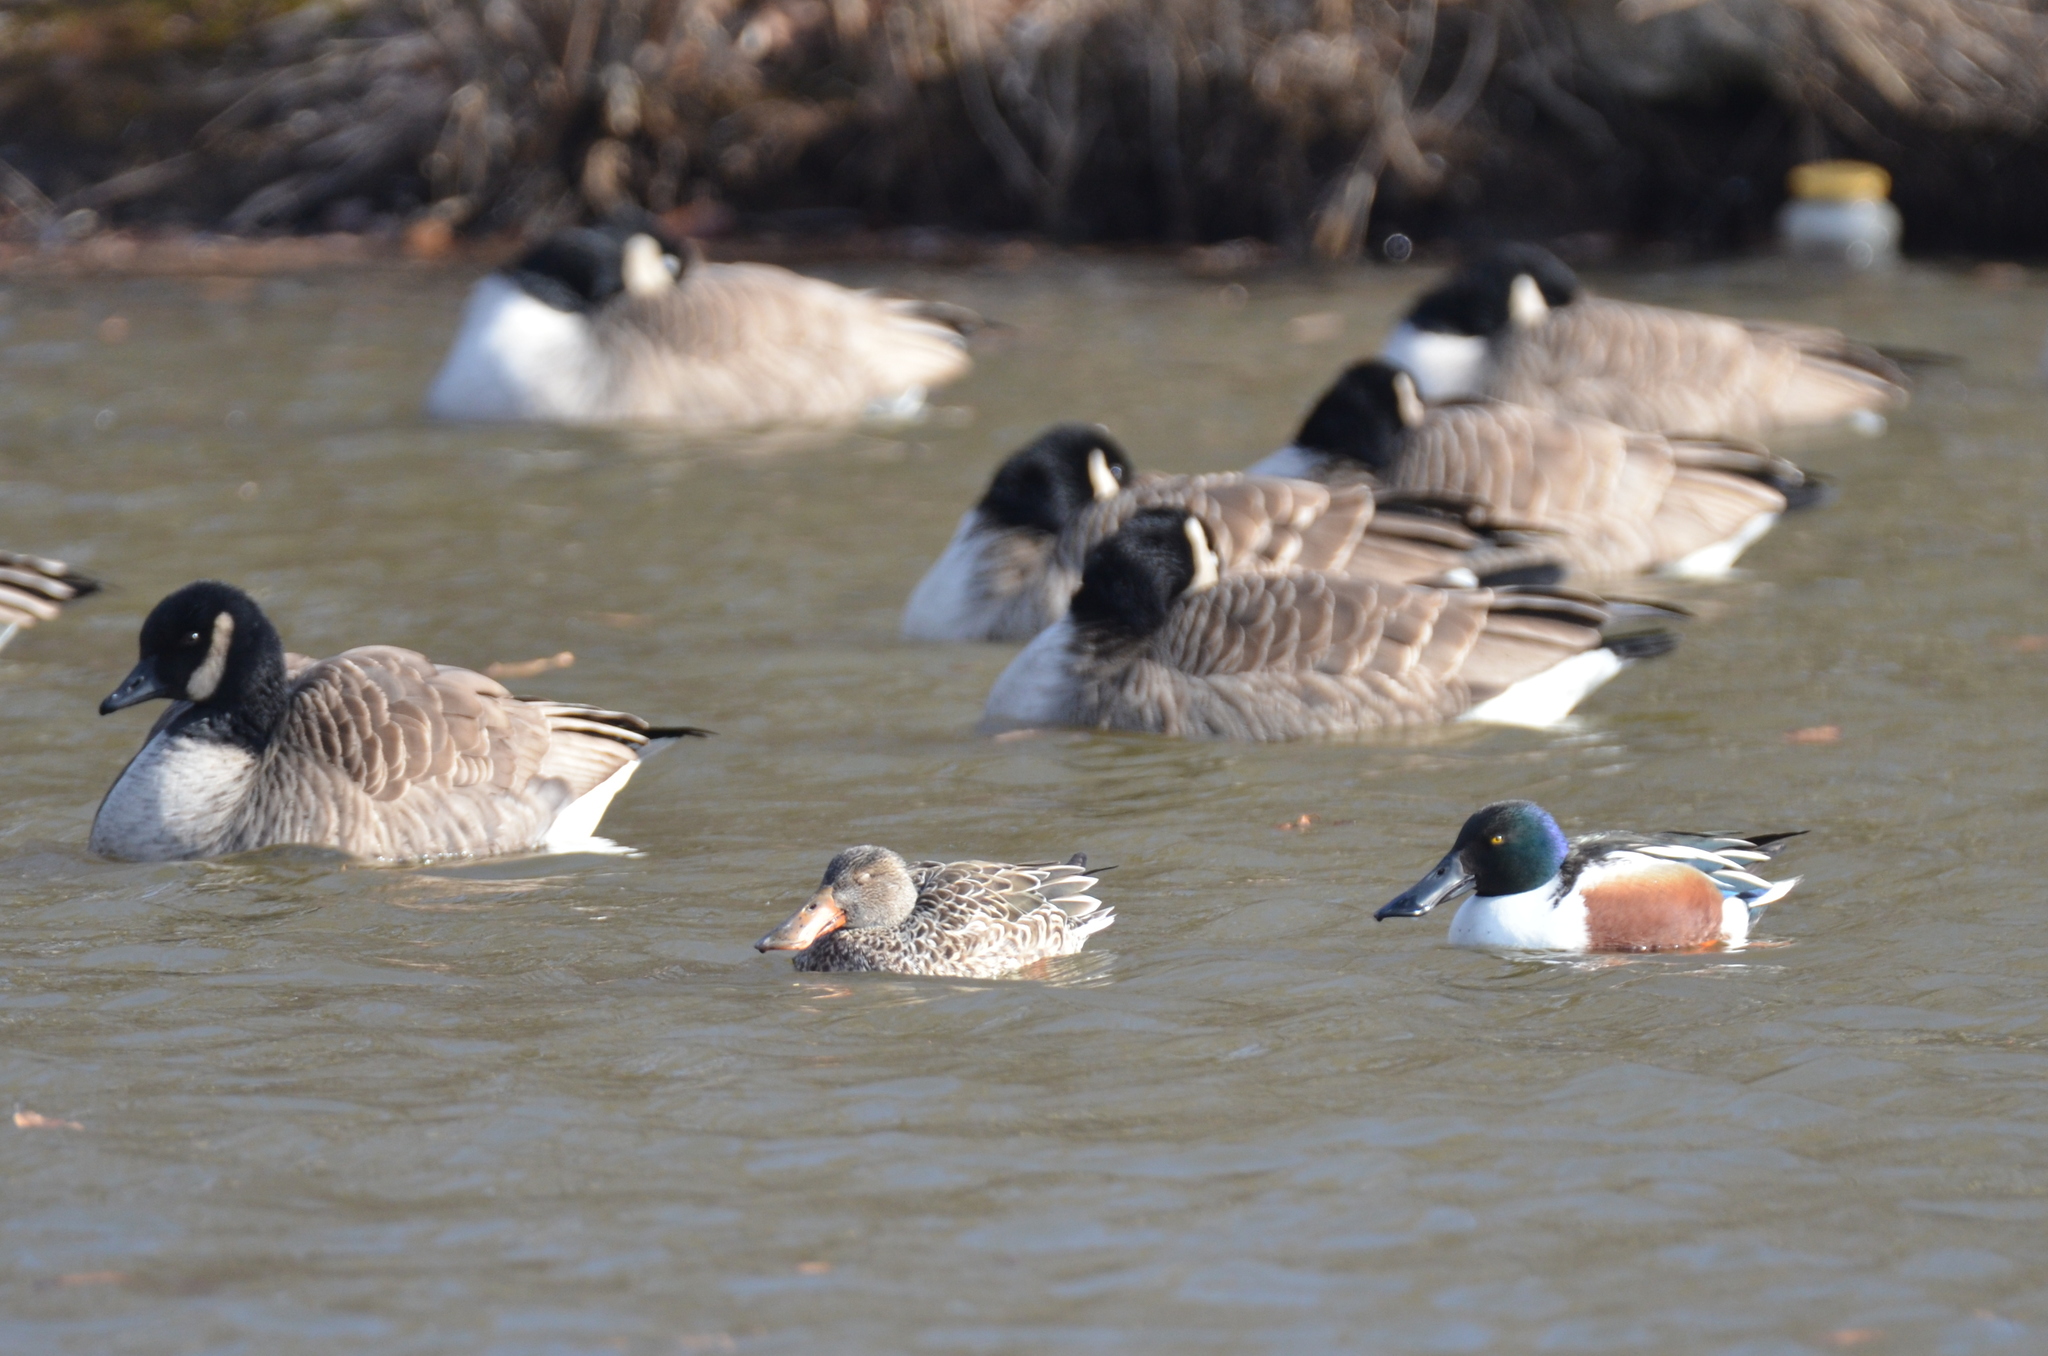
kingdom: Animalia
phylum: Chordata
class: Aves
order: Anseriformes
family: Anatidae
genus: Spatula
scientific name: Spatula clypeata
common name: Northern shoveler
